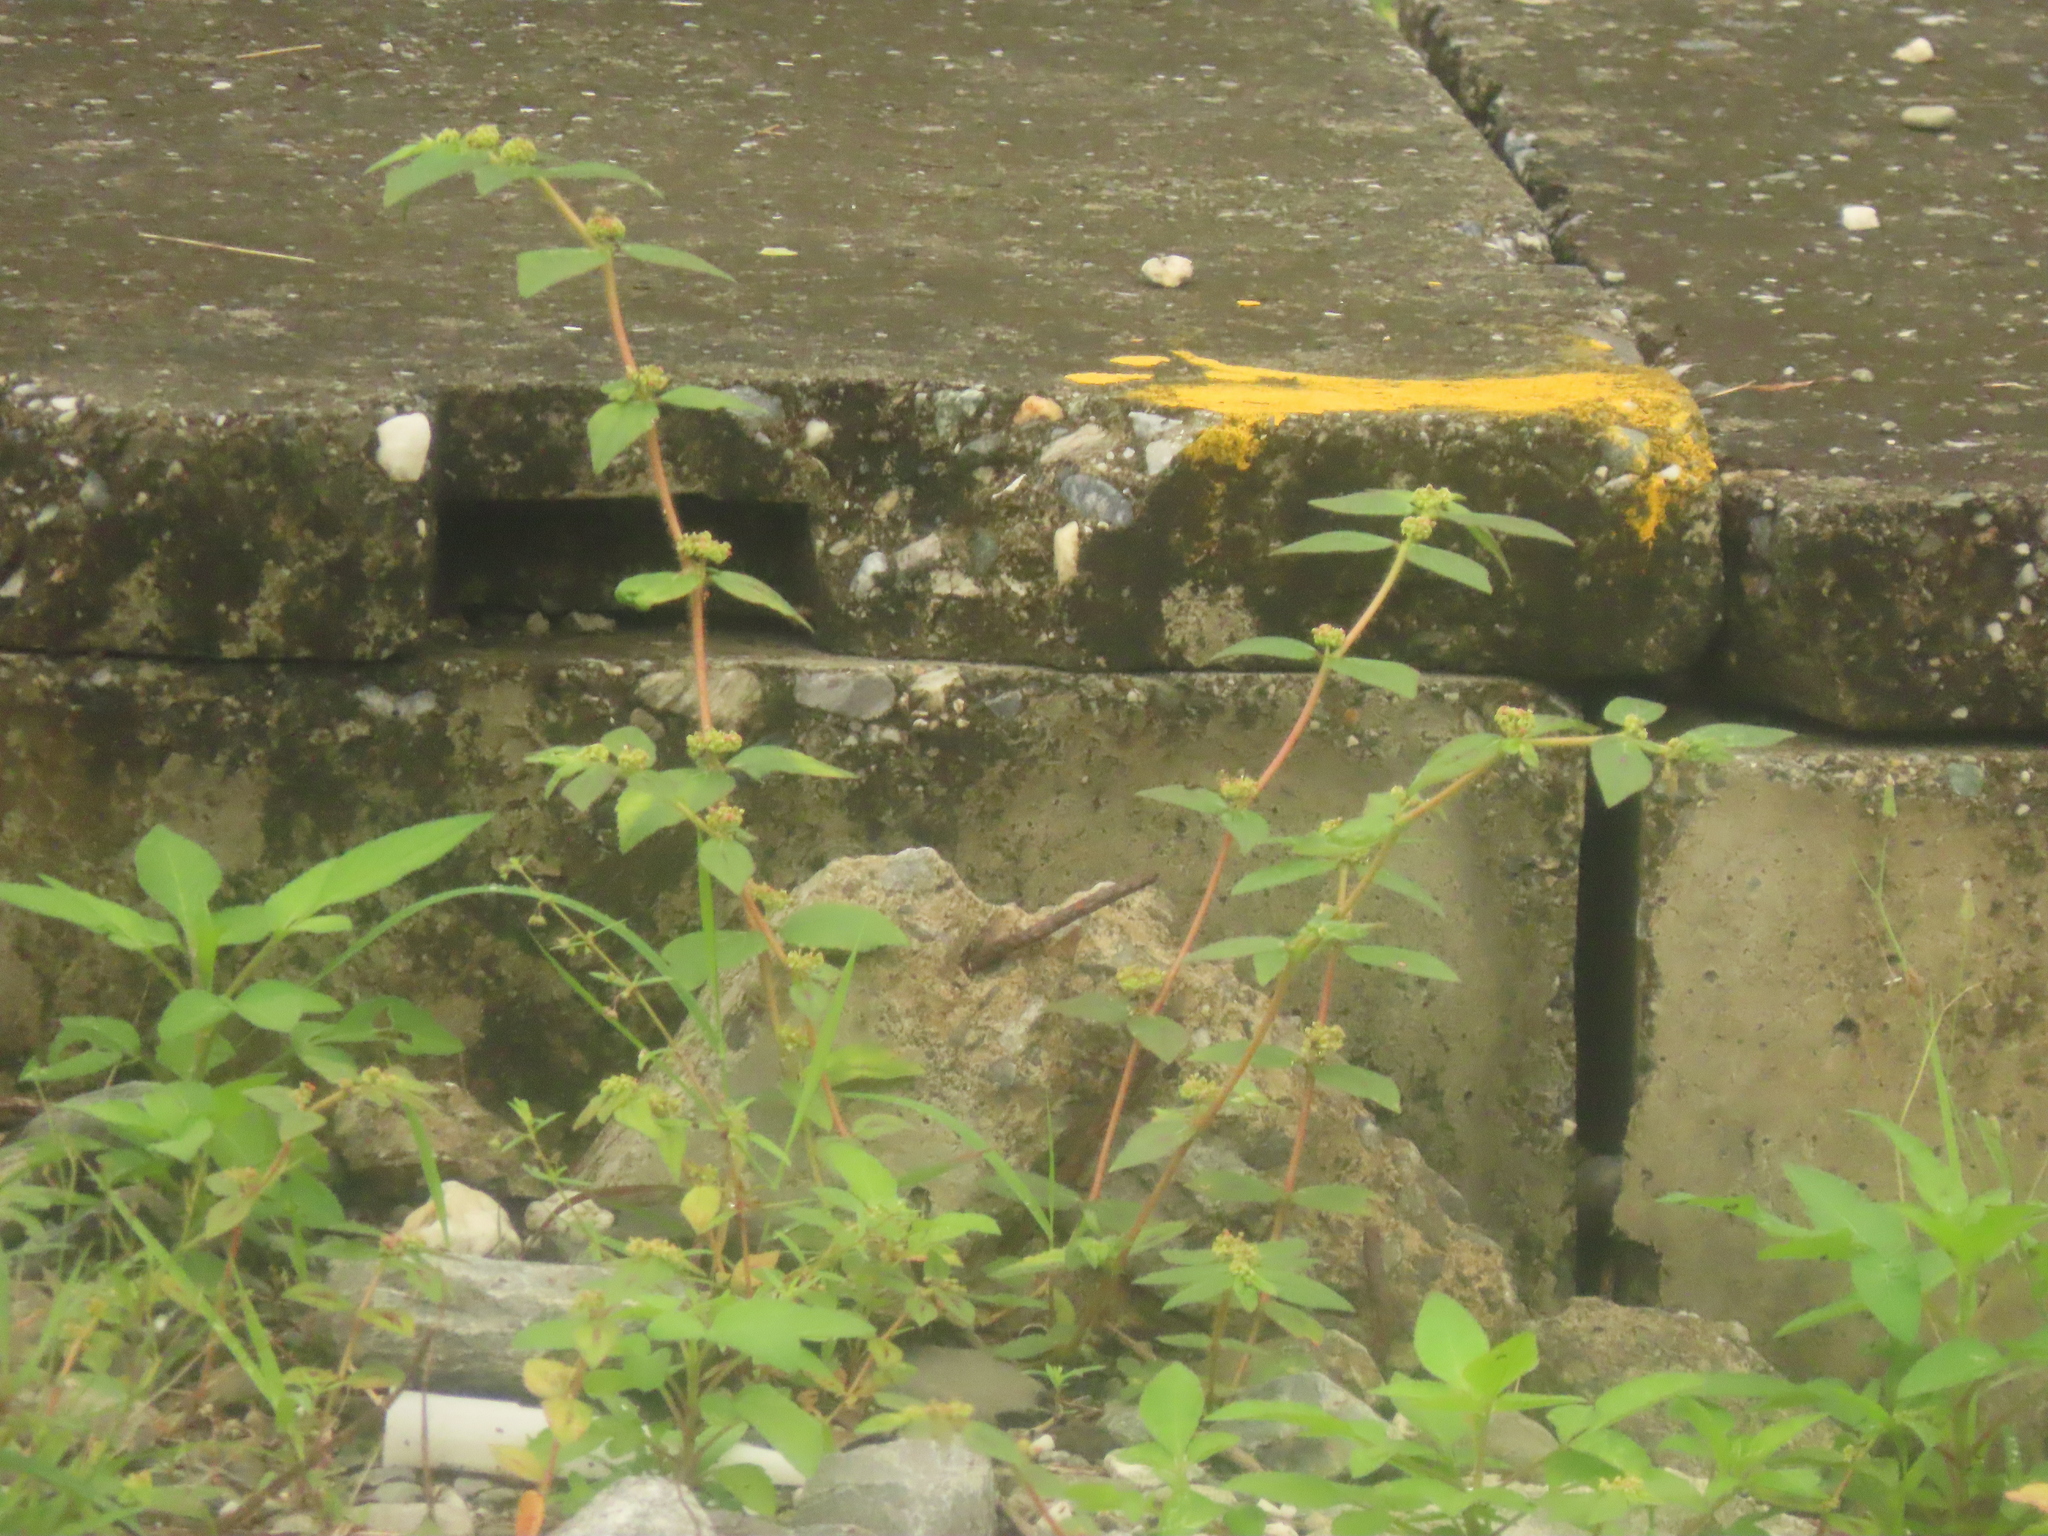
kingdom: Plantae
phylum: Tracheophyta
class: Magnoliopsida
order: Malpighiales
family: Euphorbiaceae
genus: Euphorbia
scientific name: Euphorbia hirta
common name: Pillpod sandmat
